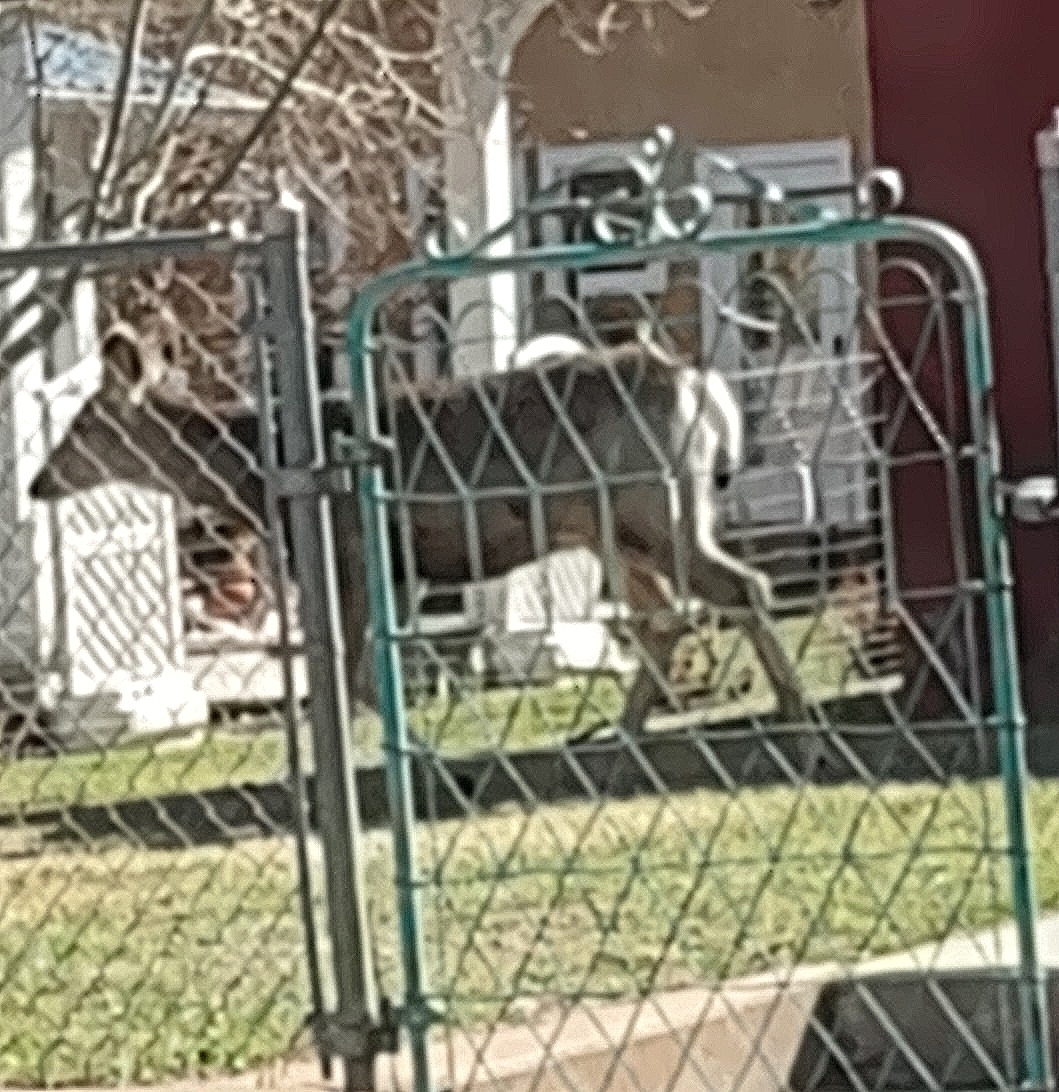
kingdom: Animalia
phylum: Chordata
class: Mammalia
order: Artiodactyla
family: Cervidae
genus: Odocoileus
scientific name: Odocoileus hemionus
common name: Mule deer
